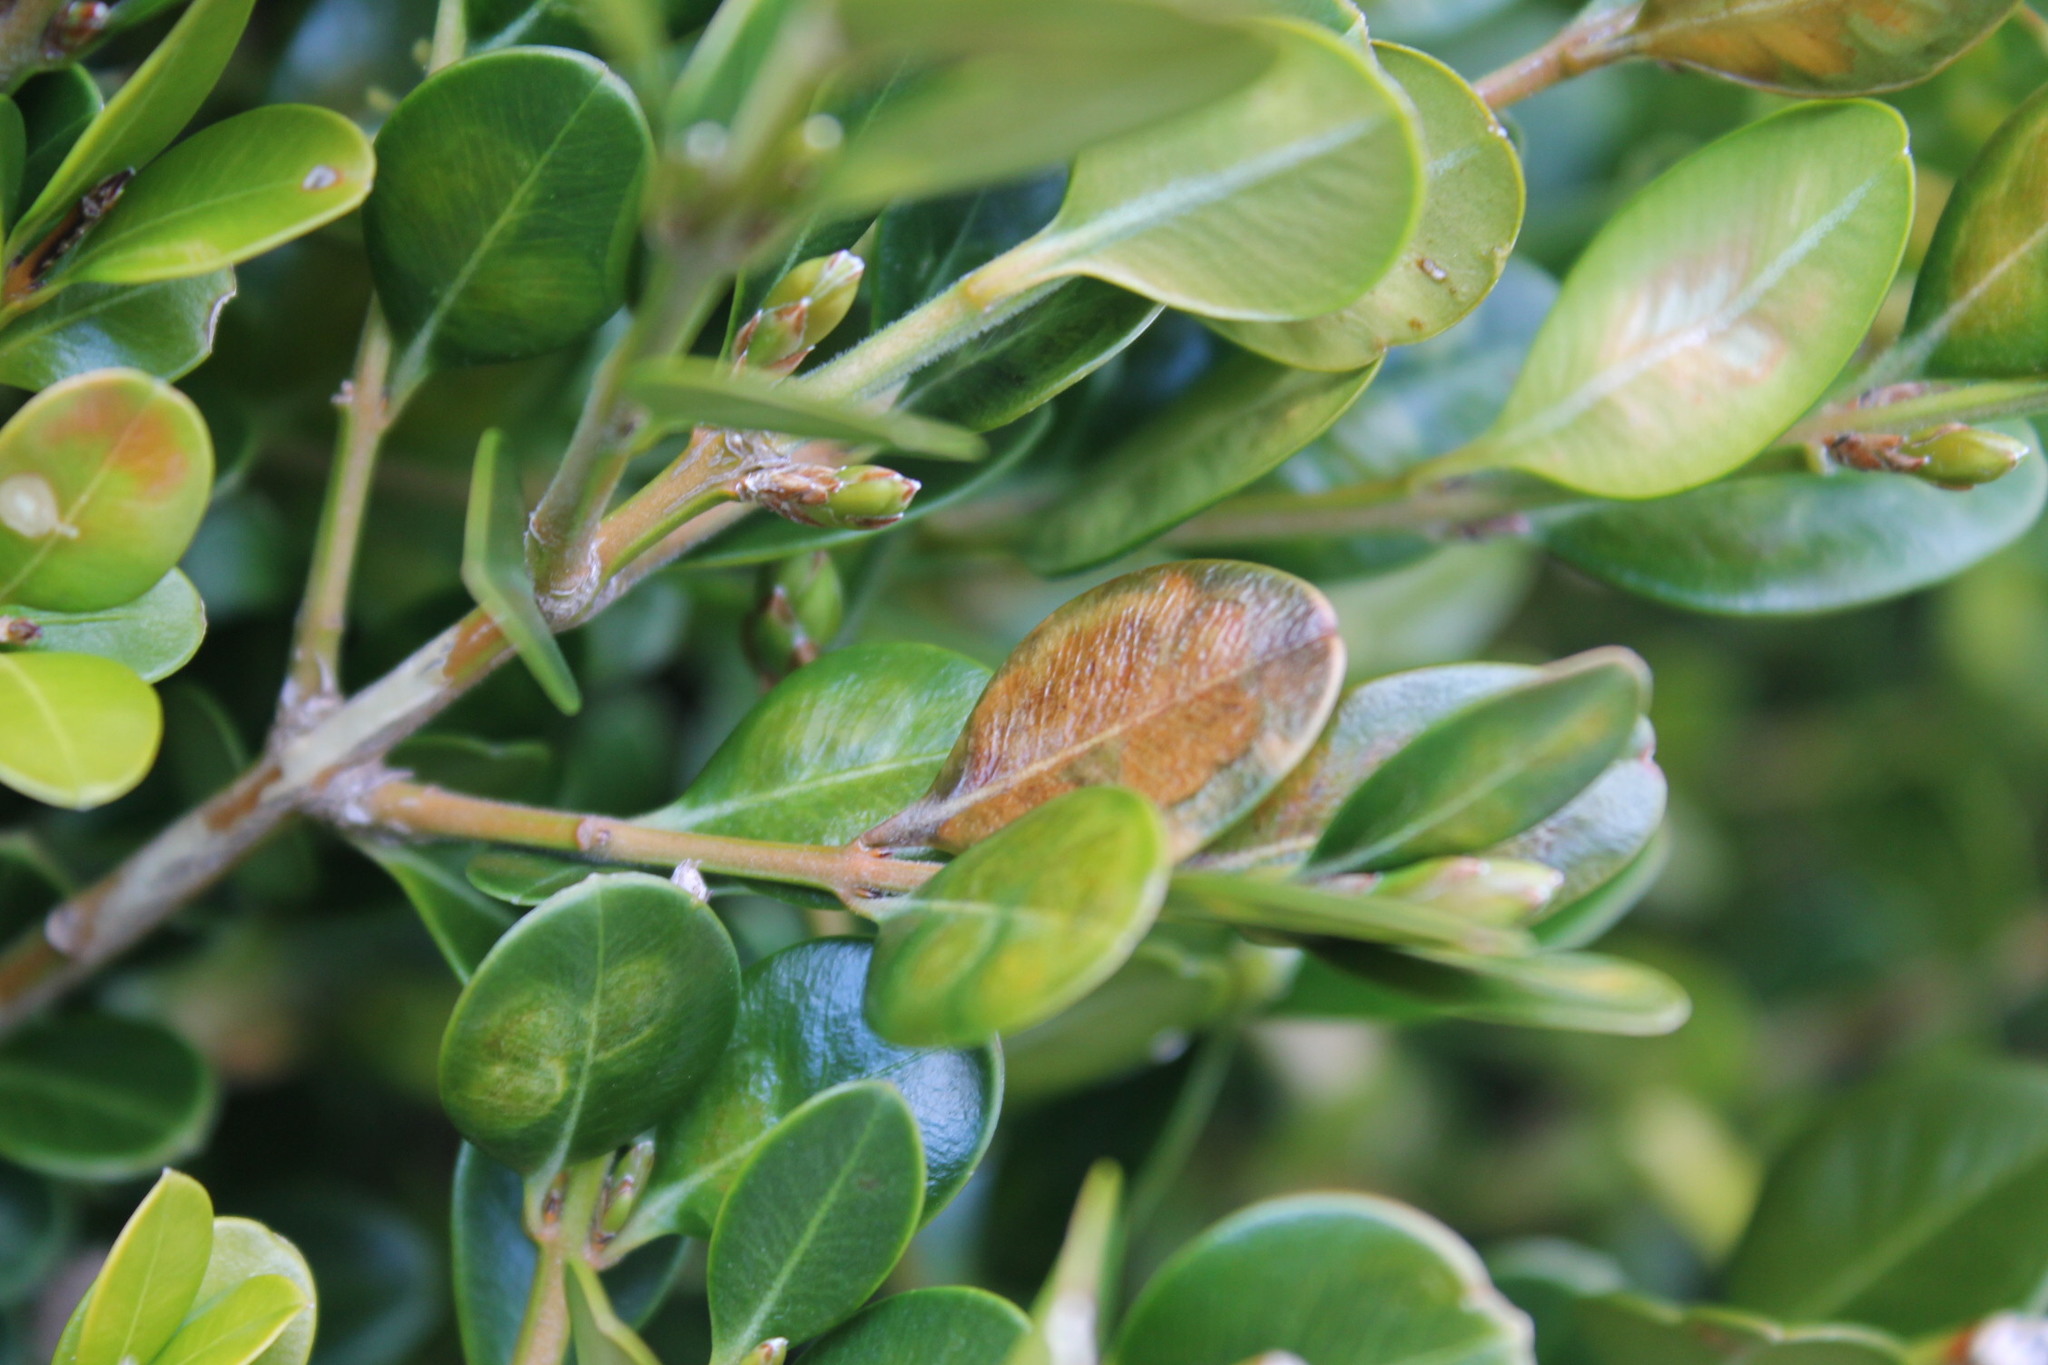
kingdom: Animalia
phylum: Arthropoda
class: Insecta
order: Diptera
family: Cecidomyiidae
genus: Monarthropalpus
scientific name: Monarthropalpus flavus
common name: Boxwood leafminer
